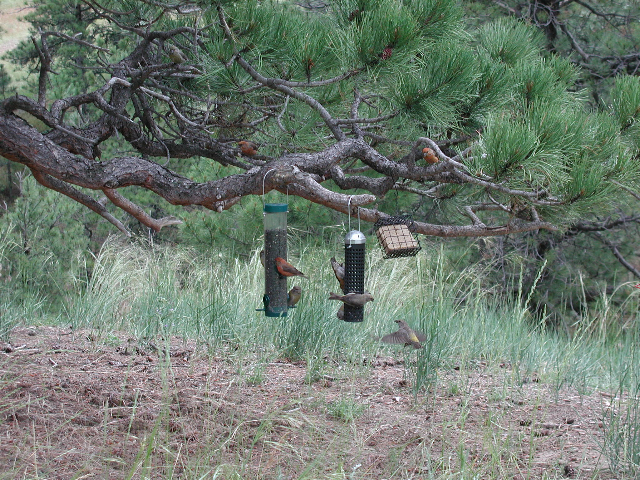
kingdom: Animalia
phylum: Chordata
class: Aves
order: Passeriformes
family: Fringillidae
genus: Loxia
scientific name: Loxia curvirostra
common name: Red crossbill
